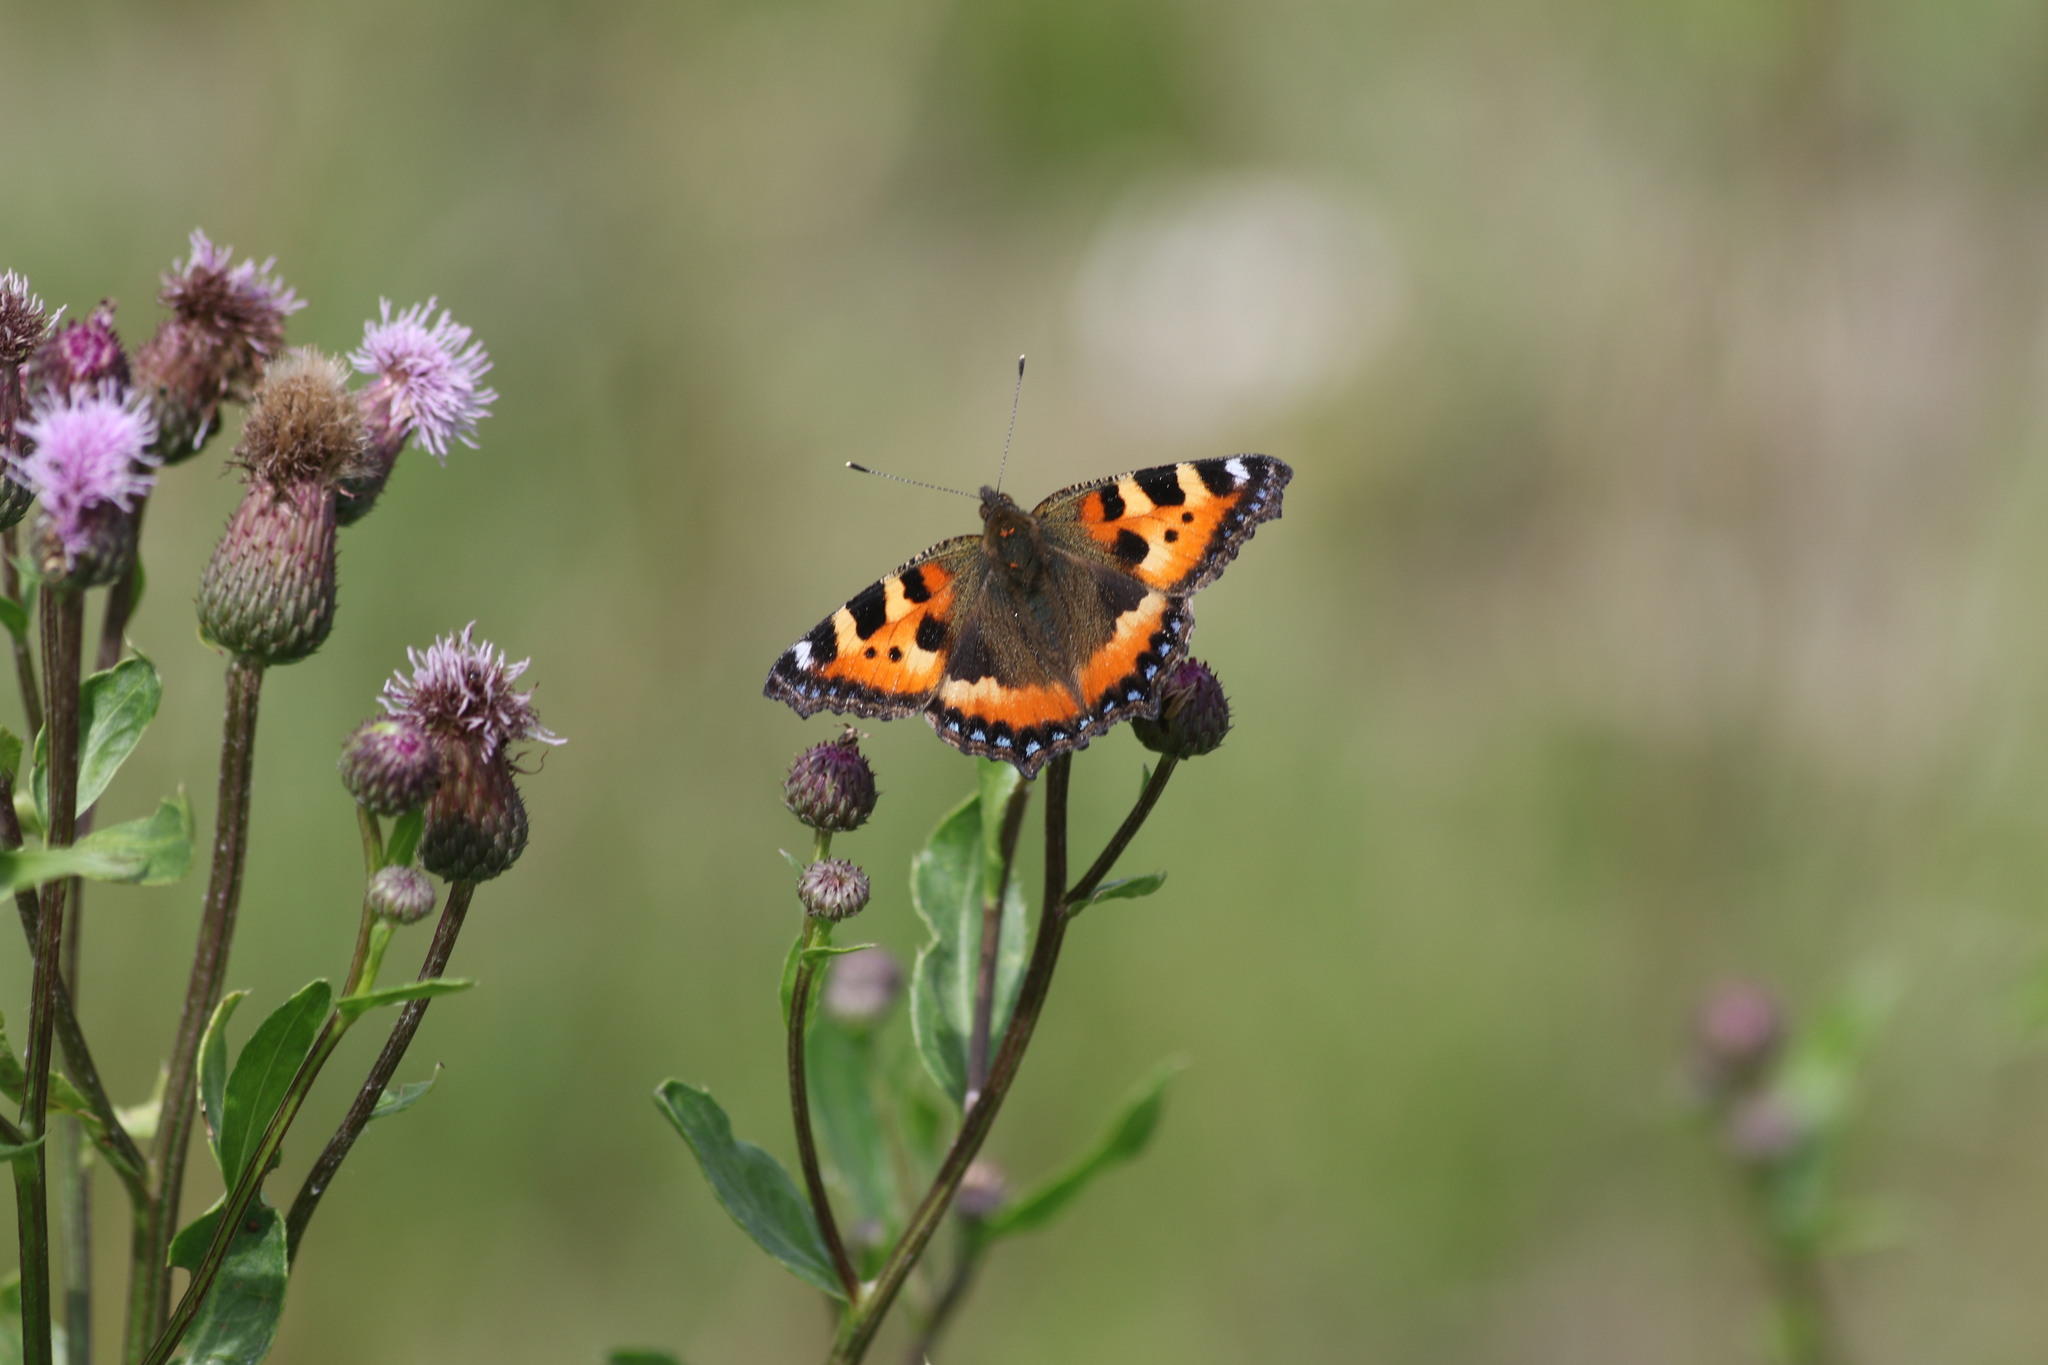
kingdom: Animalia
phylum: Arthropoda
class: Insecta
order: Lepidoptera
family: Nymphalidae
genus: Aglais
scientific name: Aglais urticae
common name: Small tortoiseshell
